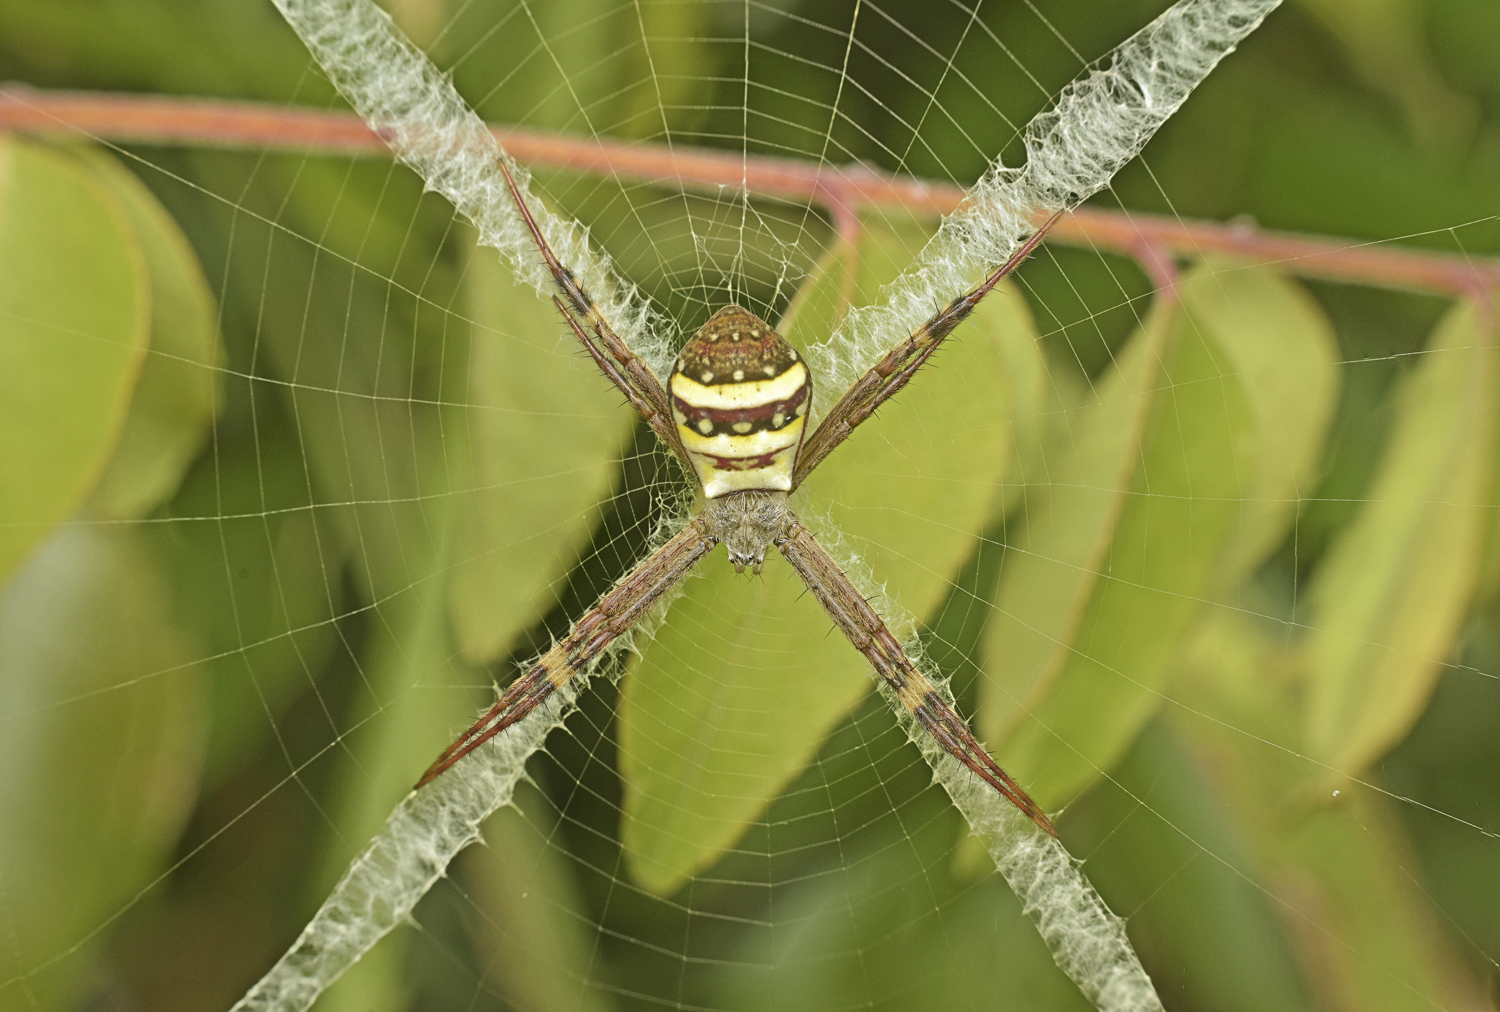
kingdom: Animalia
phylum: Arthropoda
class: Arachnida
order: Araneae
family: Araneidae
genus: Argiope
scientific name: Argiope keyserlingi
